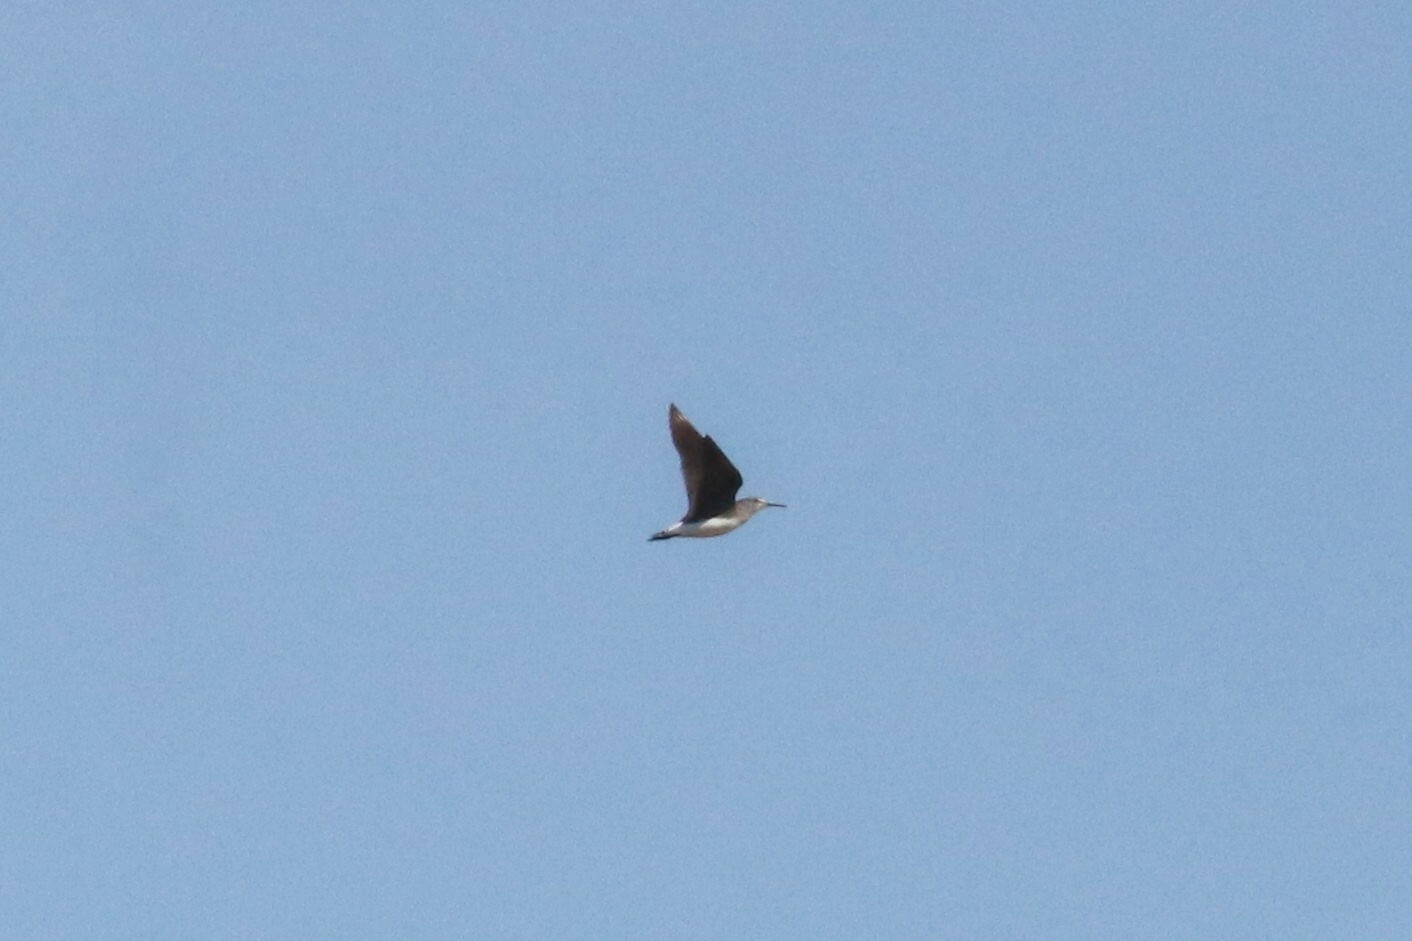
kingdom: Animalia
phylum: Chordata
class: Aves
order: Charadriiformes
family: Scolopacidae
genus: Tringa
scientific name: Tringa ochropus
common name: Green sandpiper
